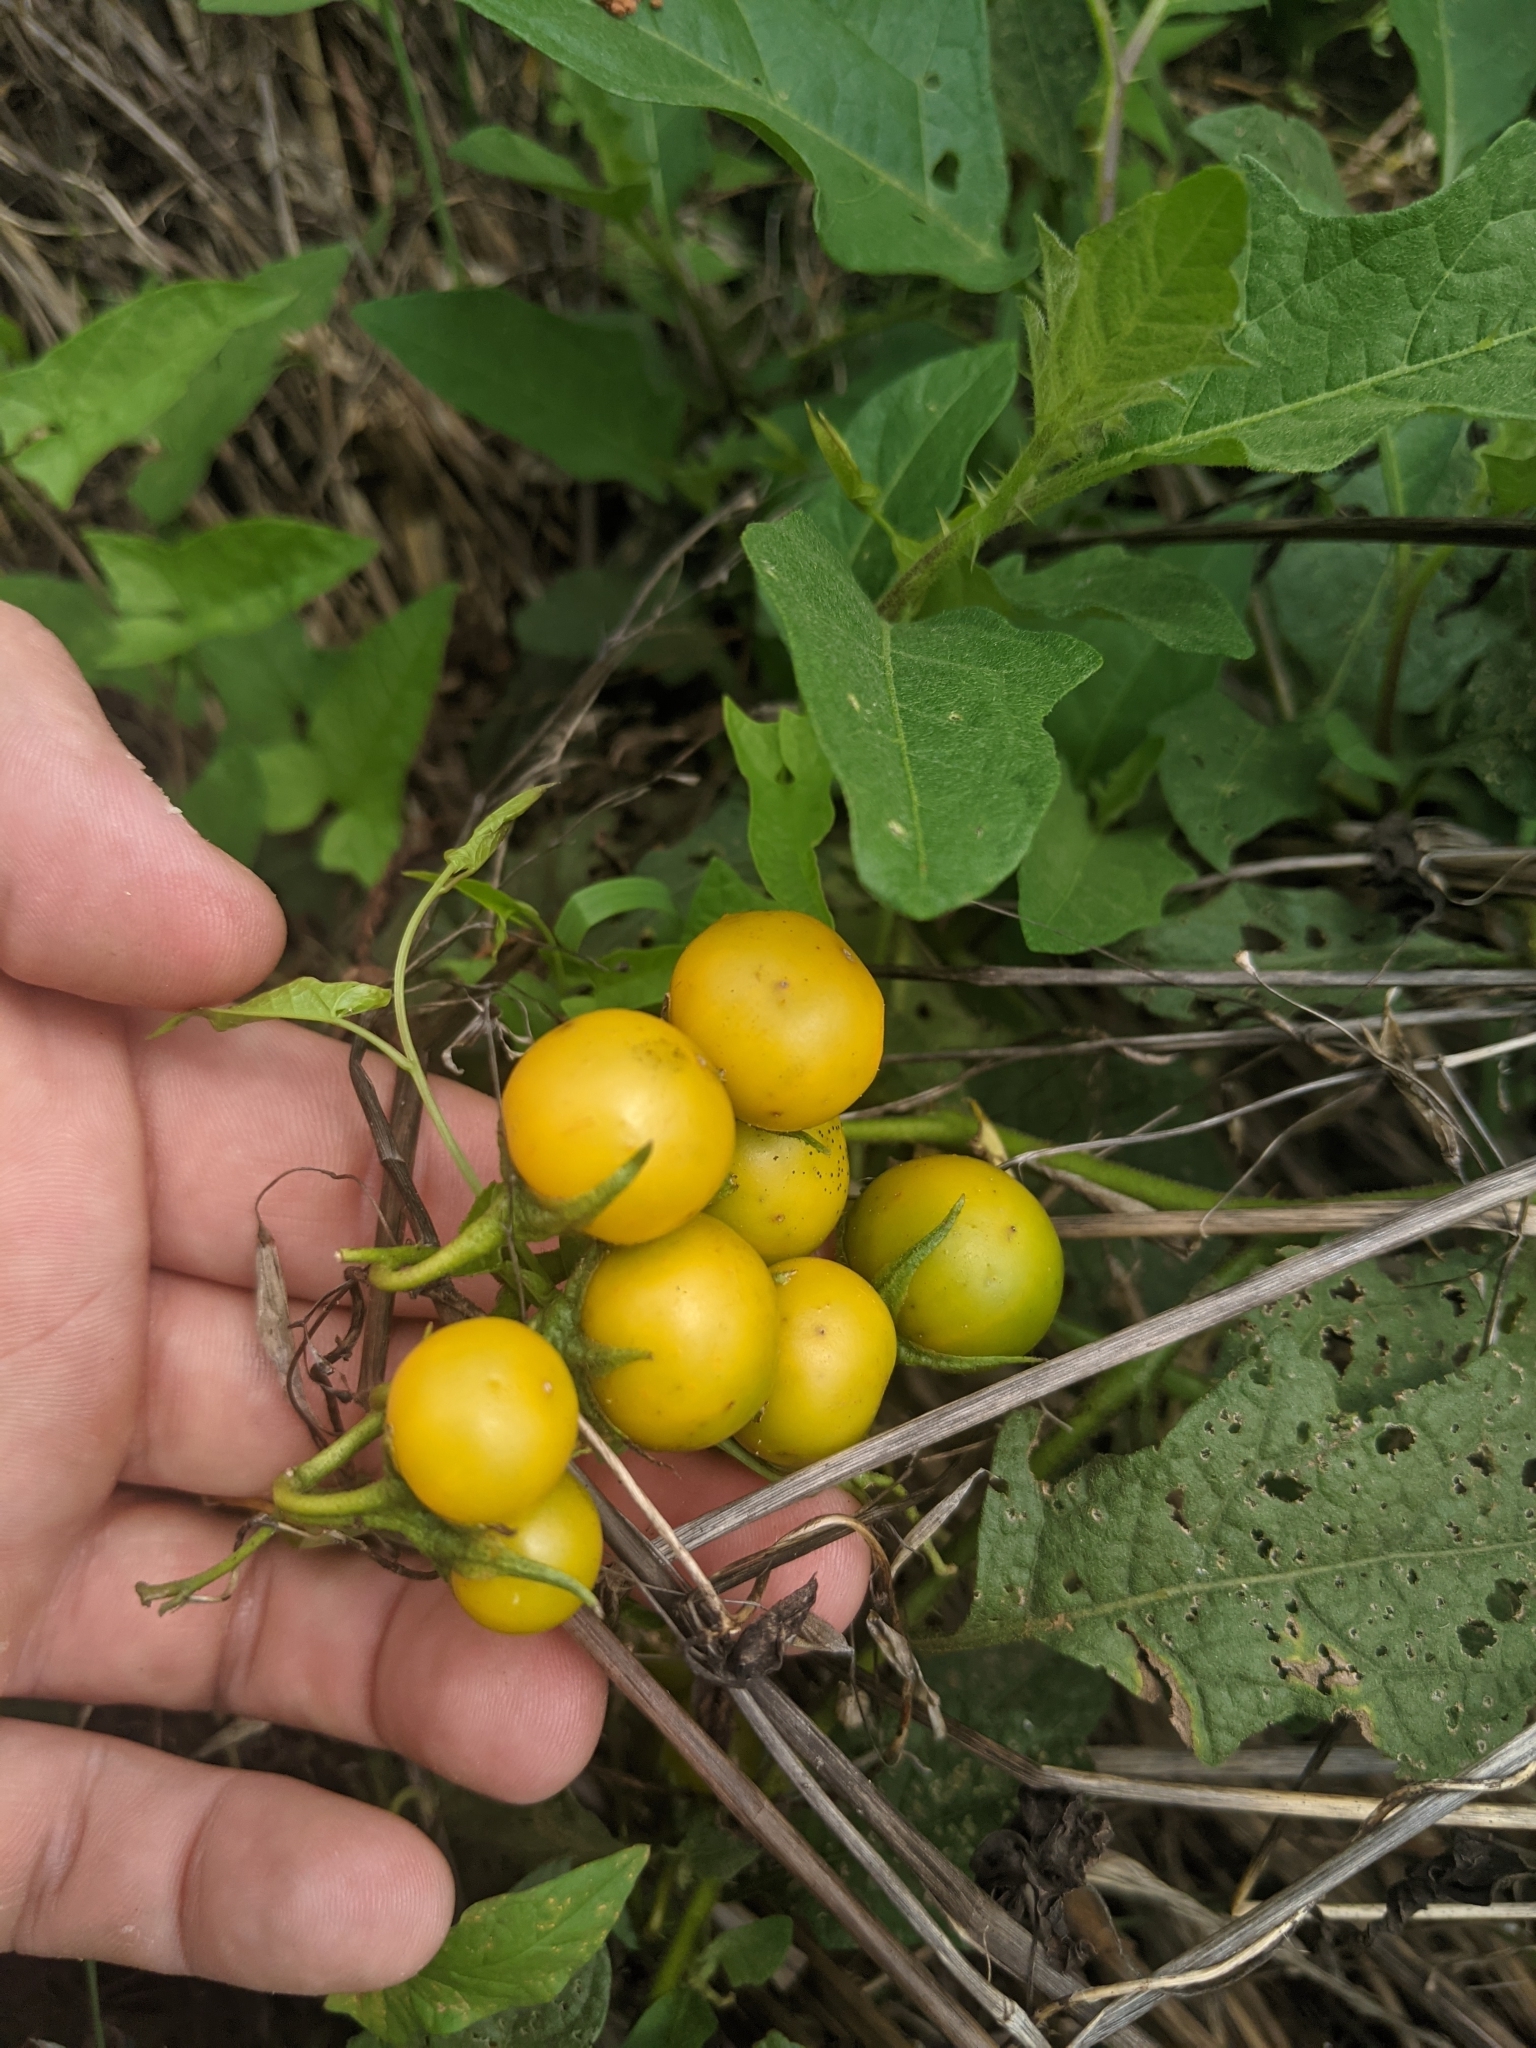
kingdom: Plantae
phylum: Tracheophyta
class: Magnoliopsida
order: Solanales
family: Solanaceae
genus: Solanum
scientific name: Solanum carolinense
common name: Horse-nettle
